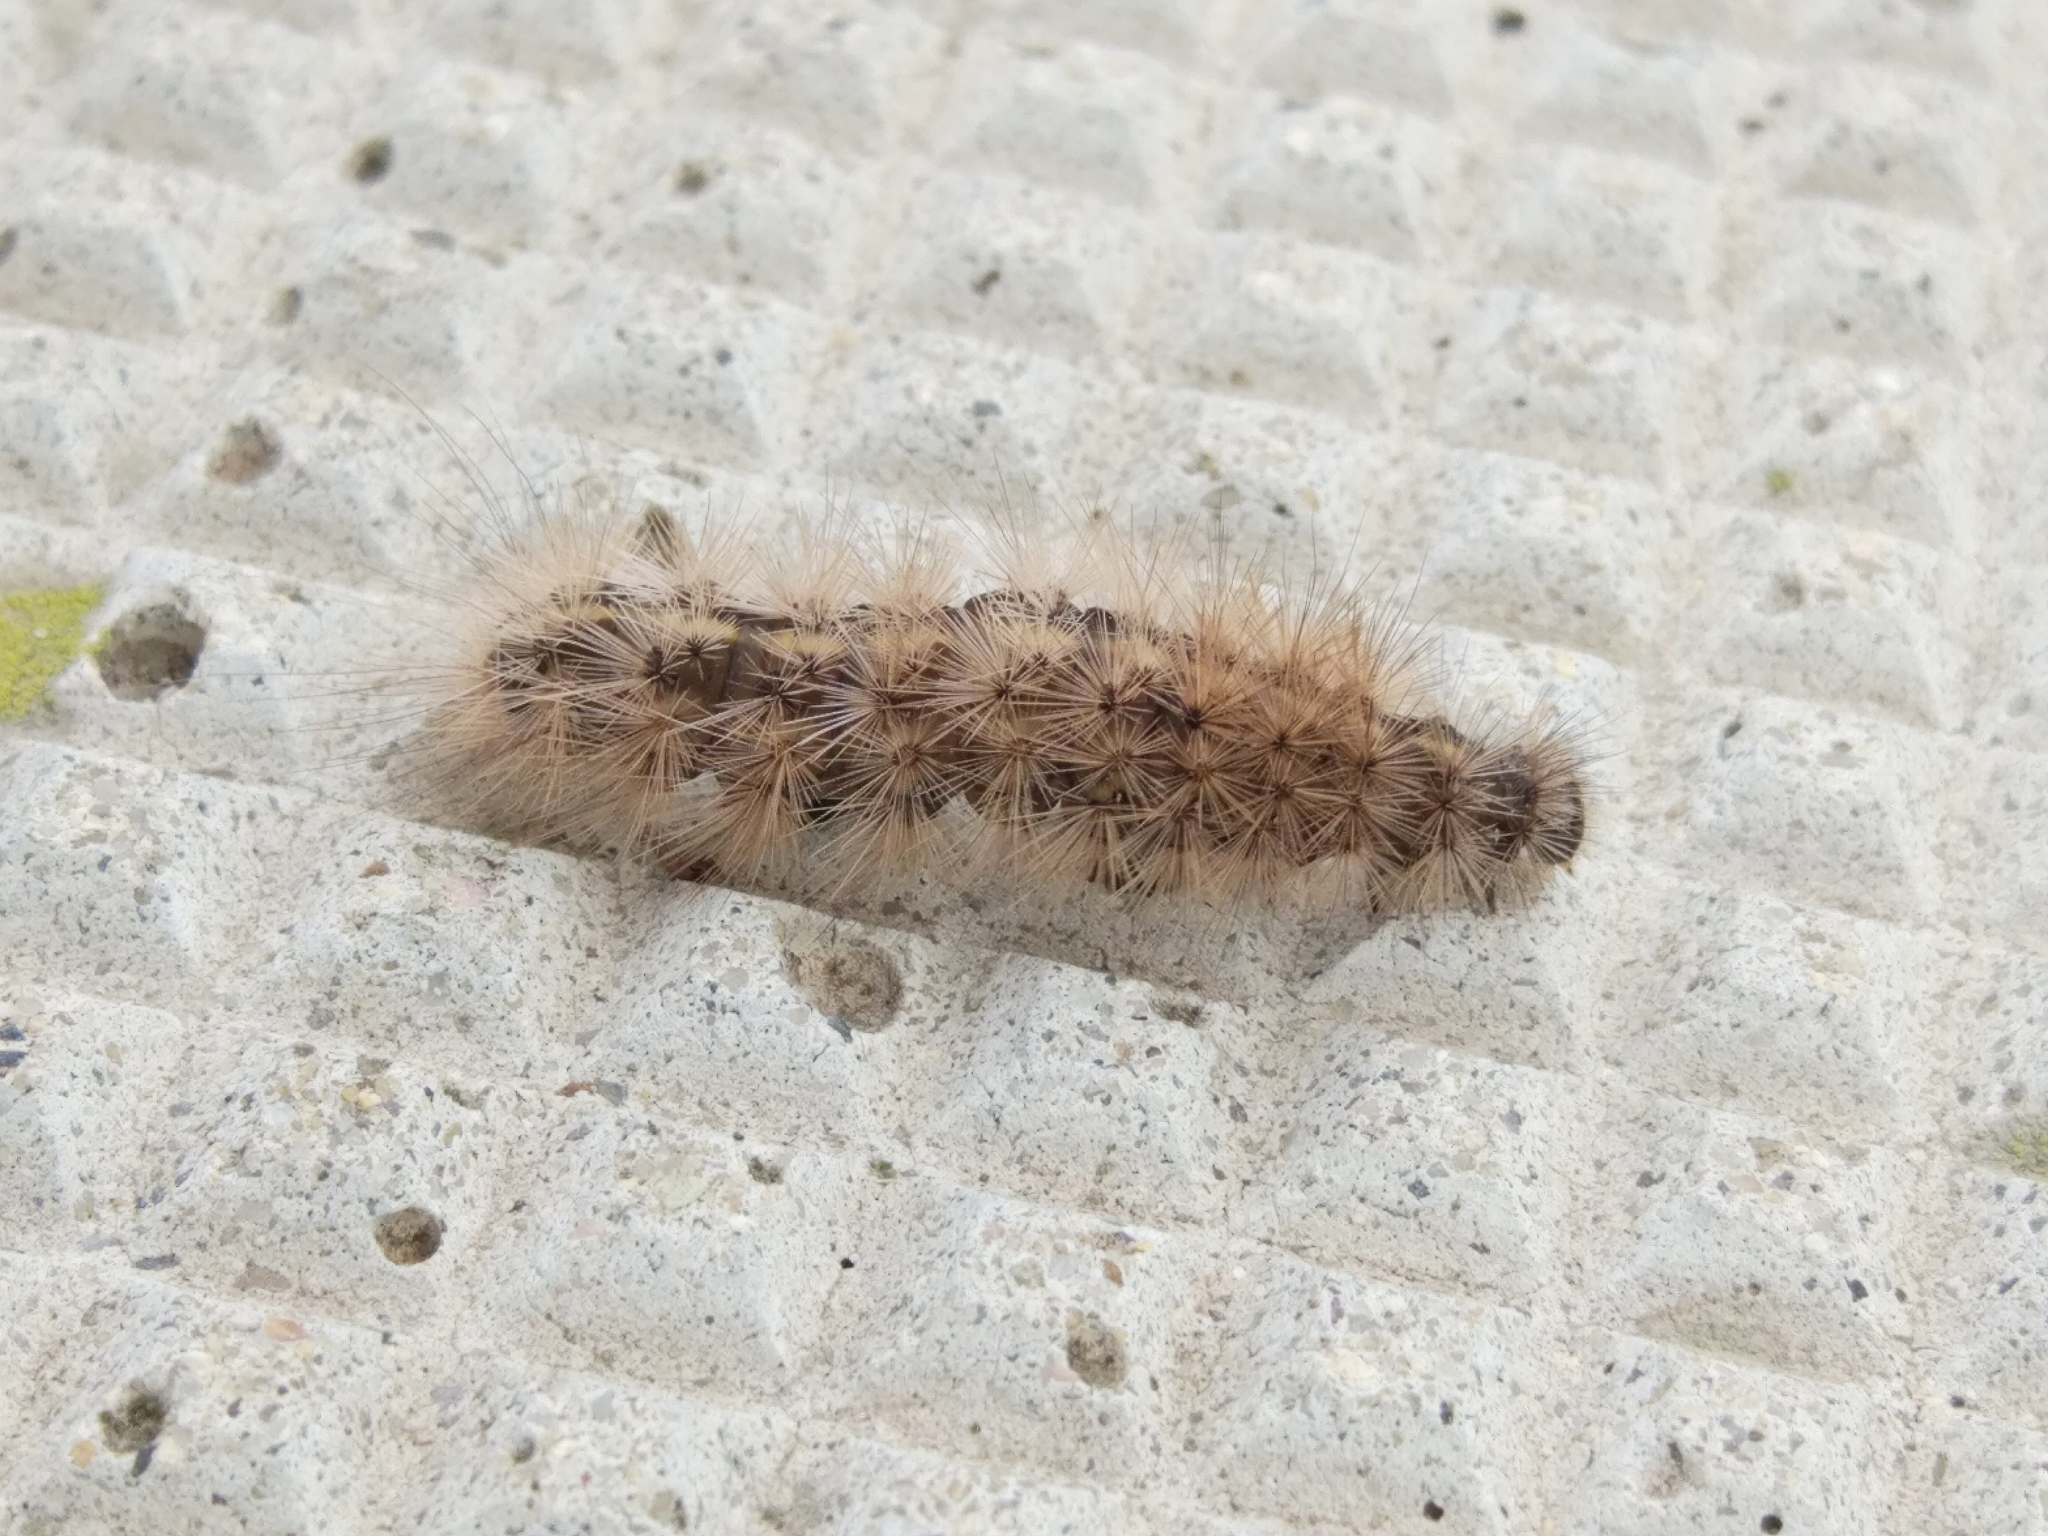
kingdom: Animalia
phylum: Arthropoda
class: Insecta
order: Lepidoptera
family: Erebidae
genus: Phragmatobia
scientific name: Phragmatobia fuliginosa
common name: Ruby tiger
